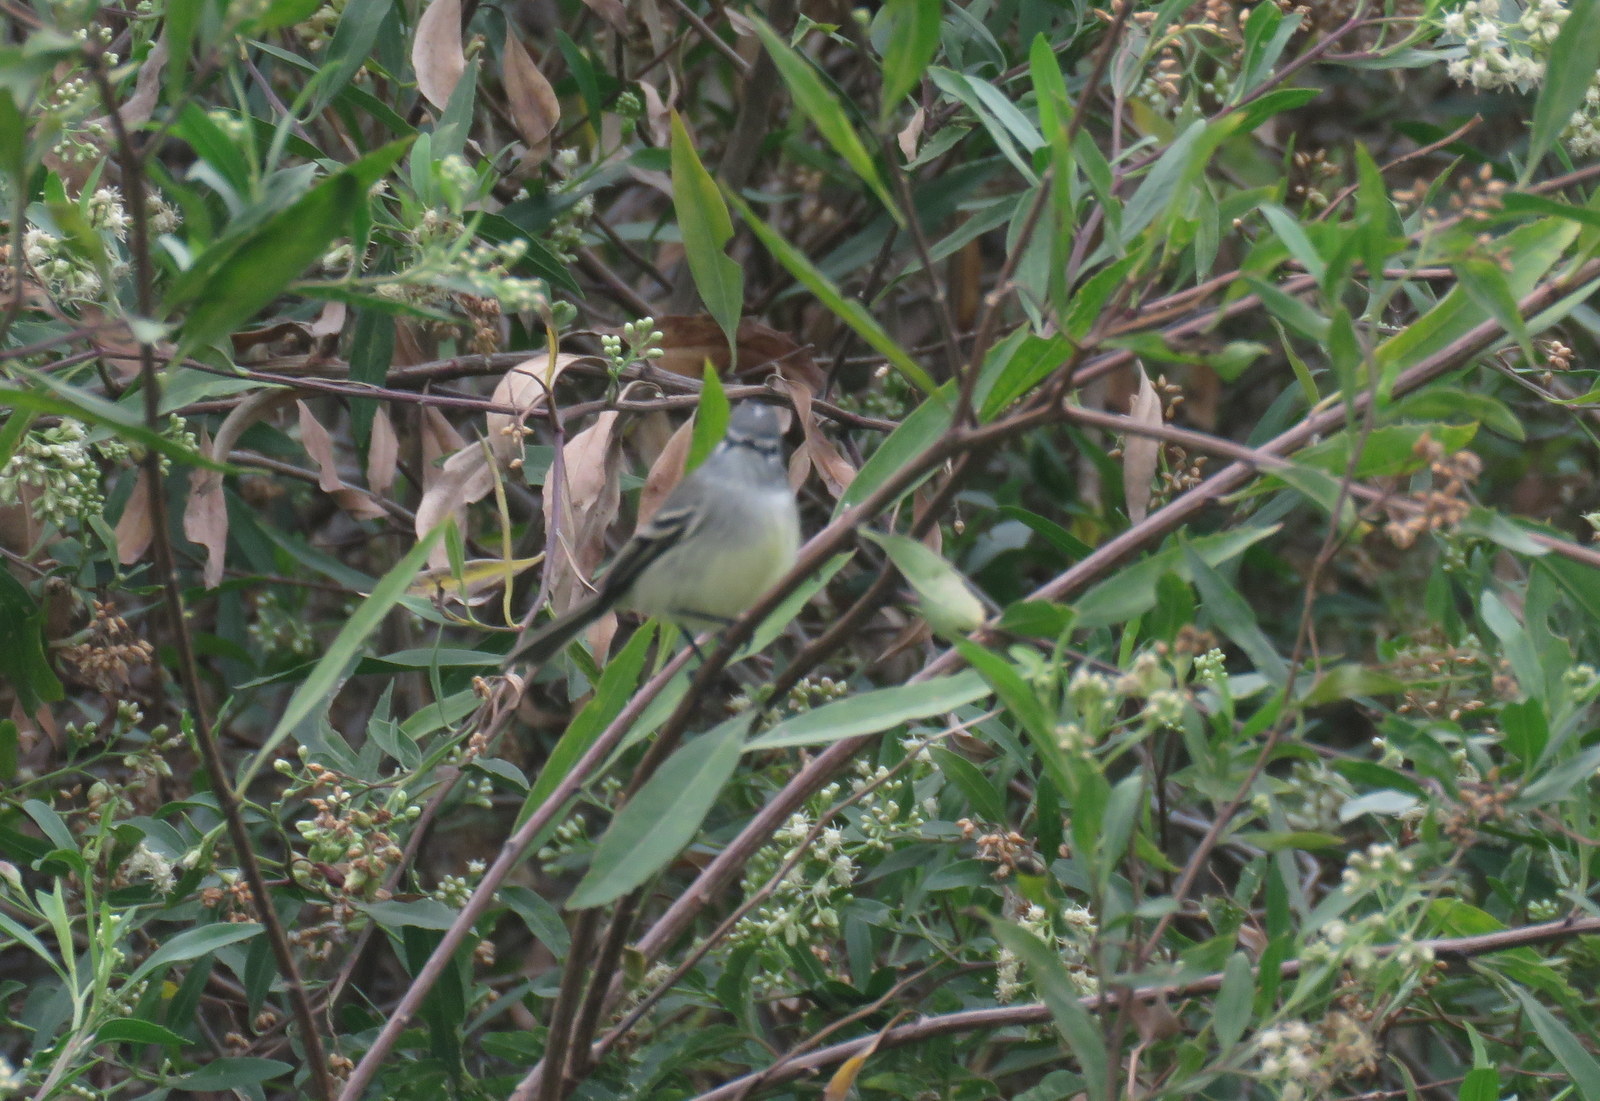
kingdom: Animalia
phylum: Chordata
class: Aves
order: Passeriformes
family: Tyrannidae
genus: Serpophaga
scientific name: Serpophaga subcristata
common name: White-crested tyrannulet
